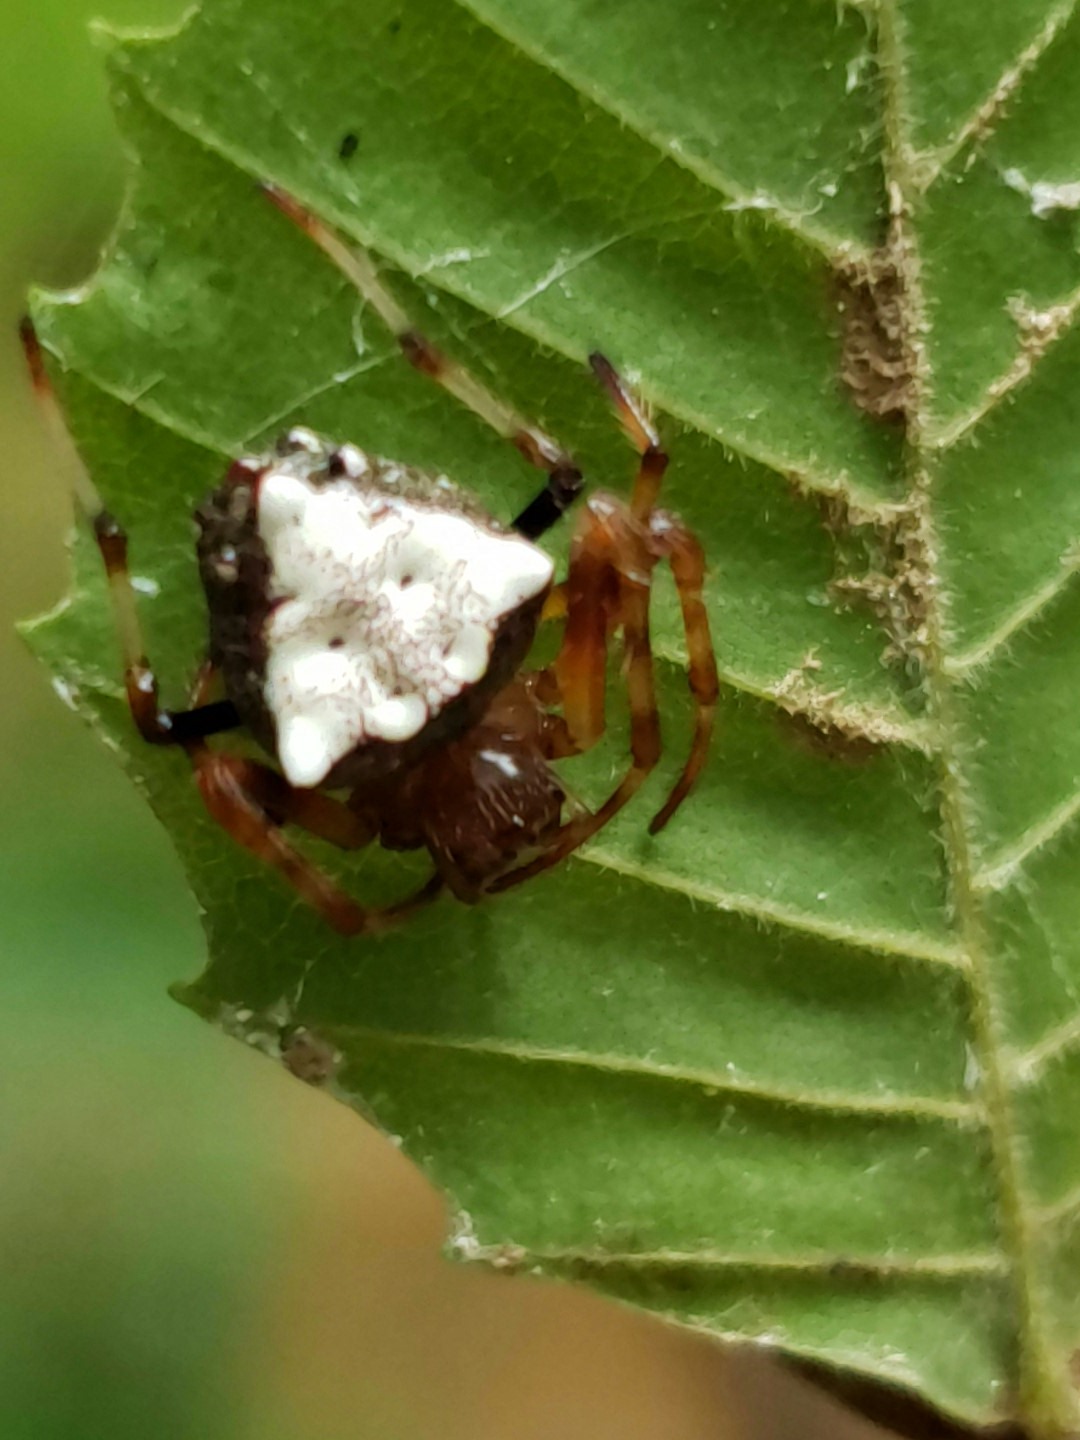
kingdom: Animalia
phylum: Arthropoda
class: Arachnida
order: Araneae
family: Araneidae
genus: Verrucosa
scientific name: Verrucosa arenata
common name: Orb weavers
